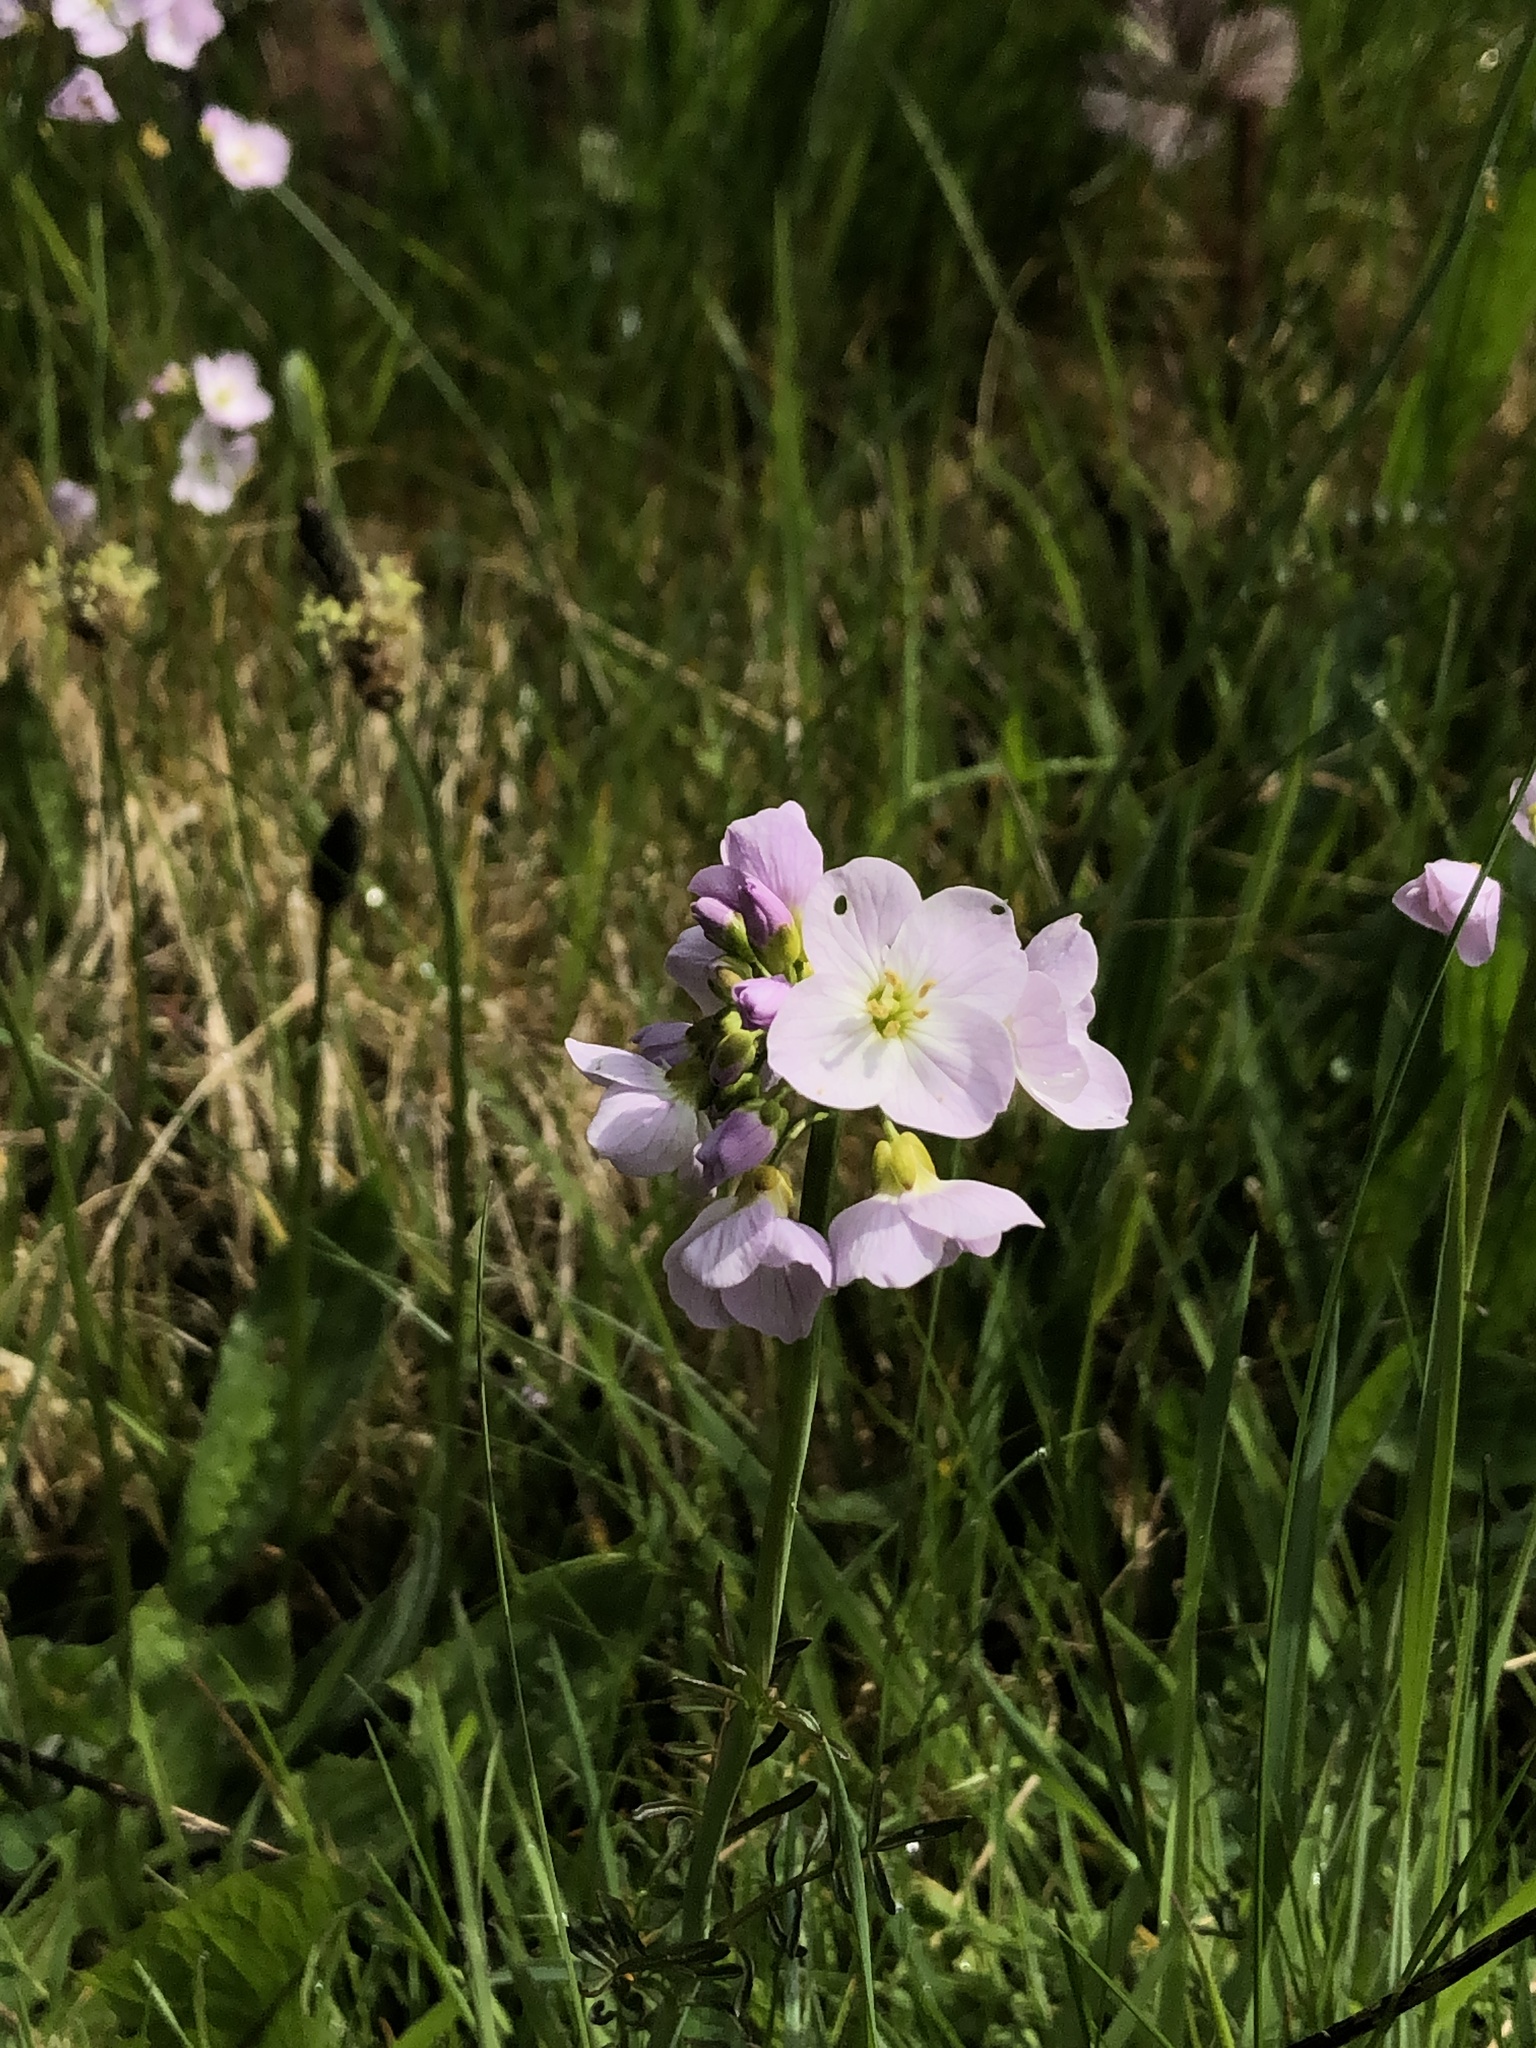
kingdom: Plantae
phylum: Tracheophyta
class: Magnoliopsida
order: Brassicales
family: Brassicaceae
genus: Cardamine
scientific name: Cardamine pratensis
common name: Cuckoo flower
